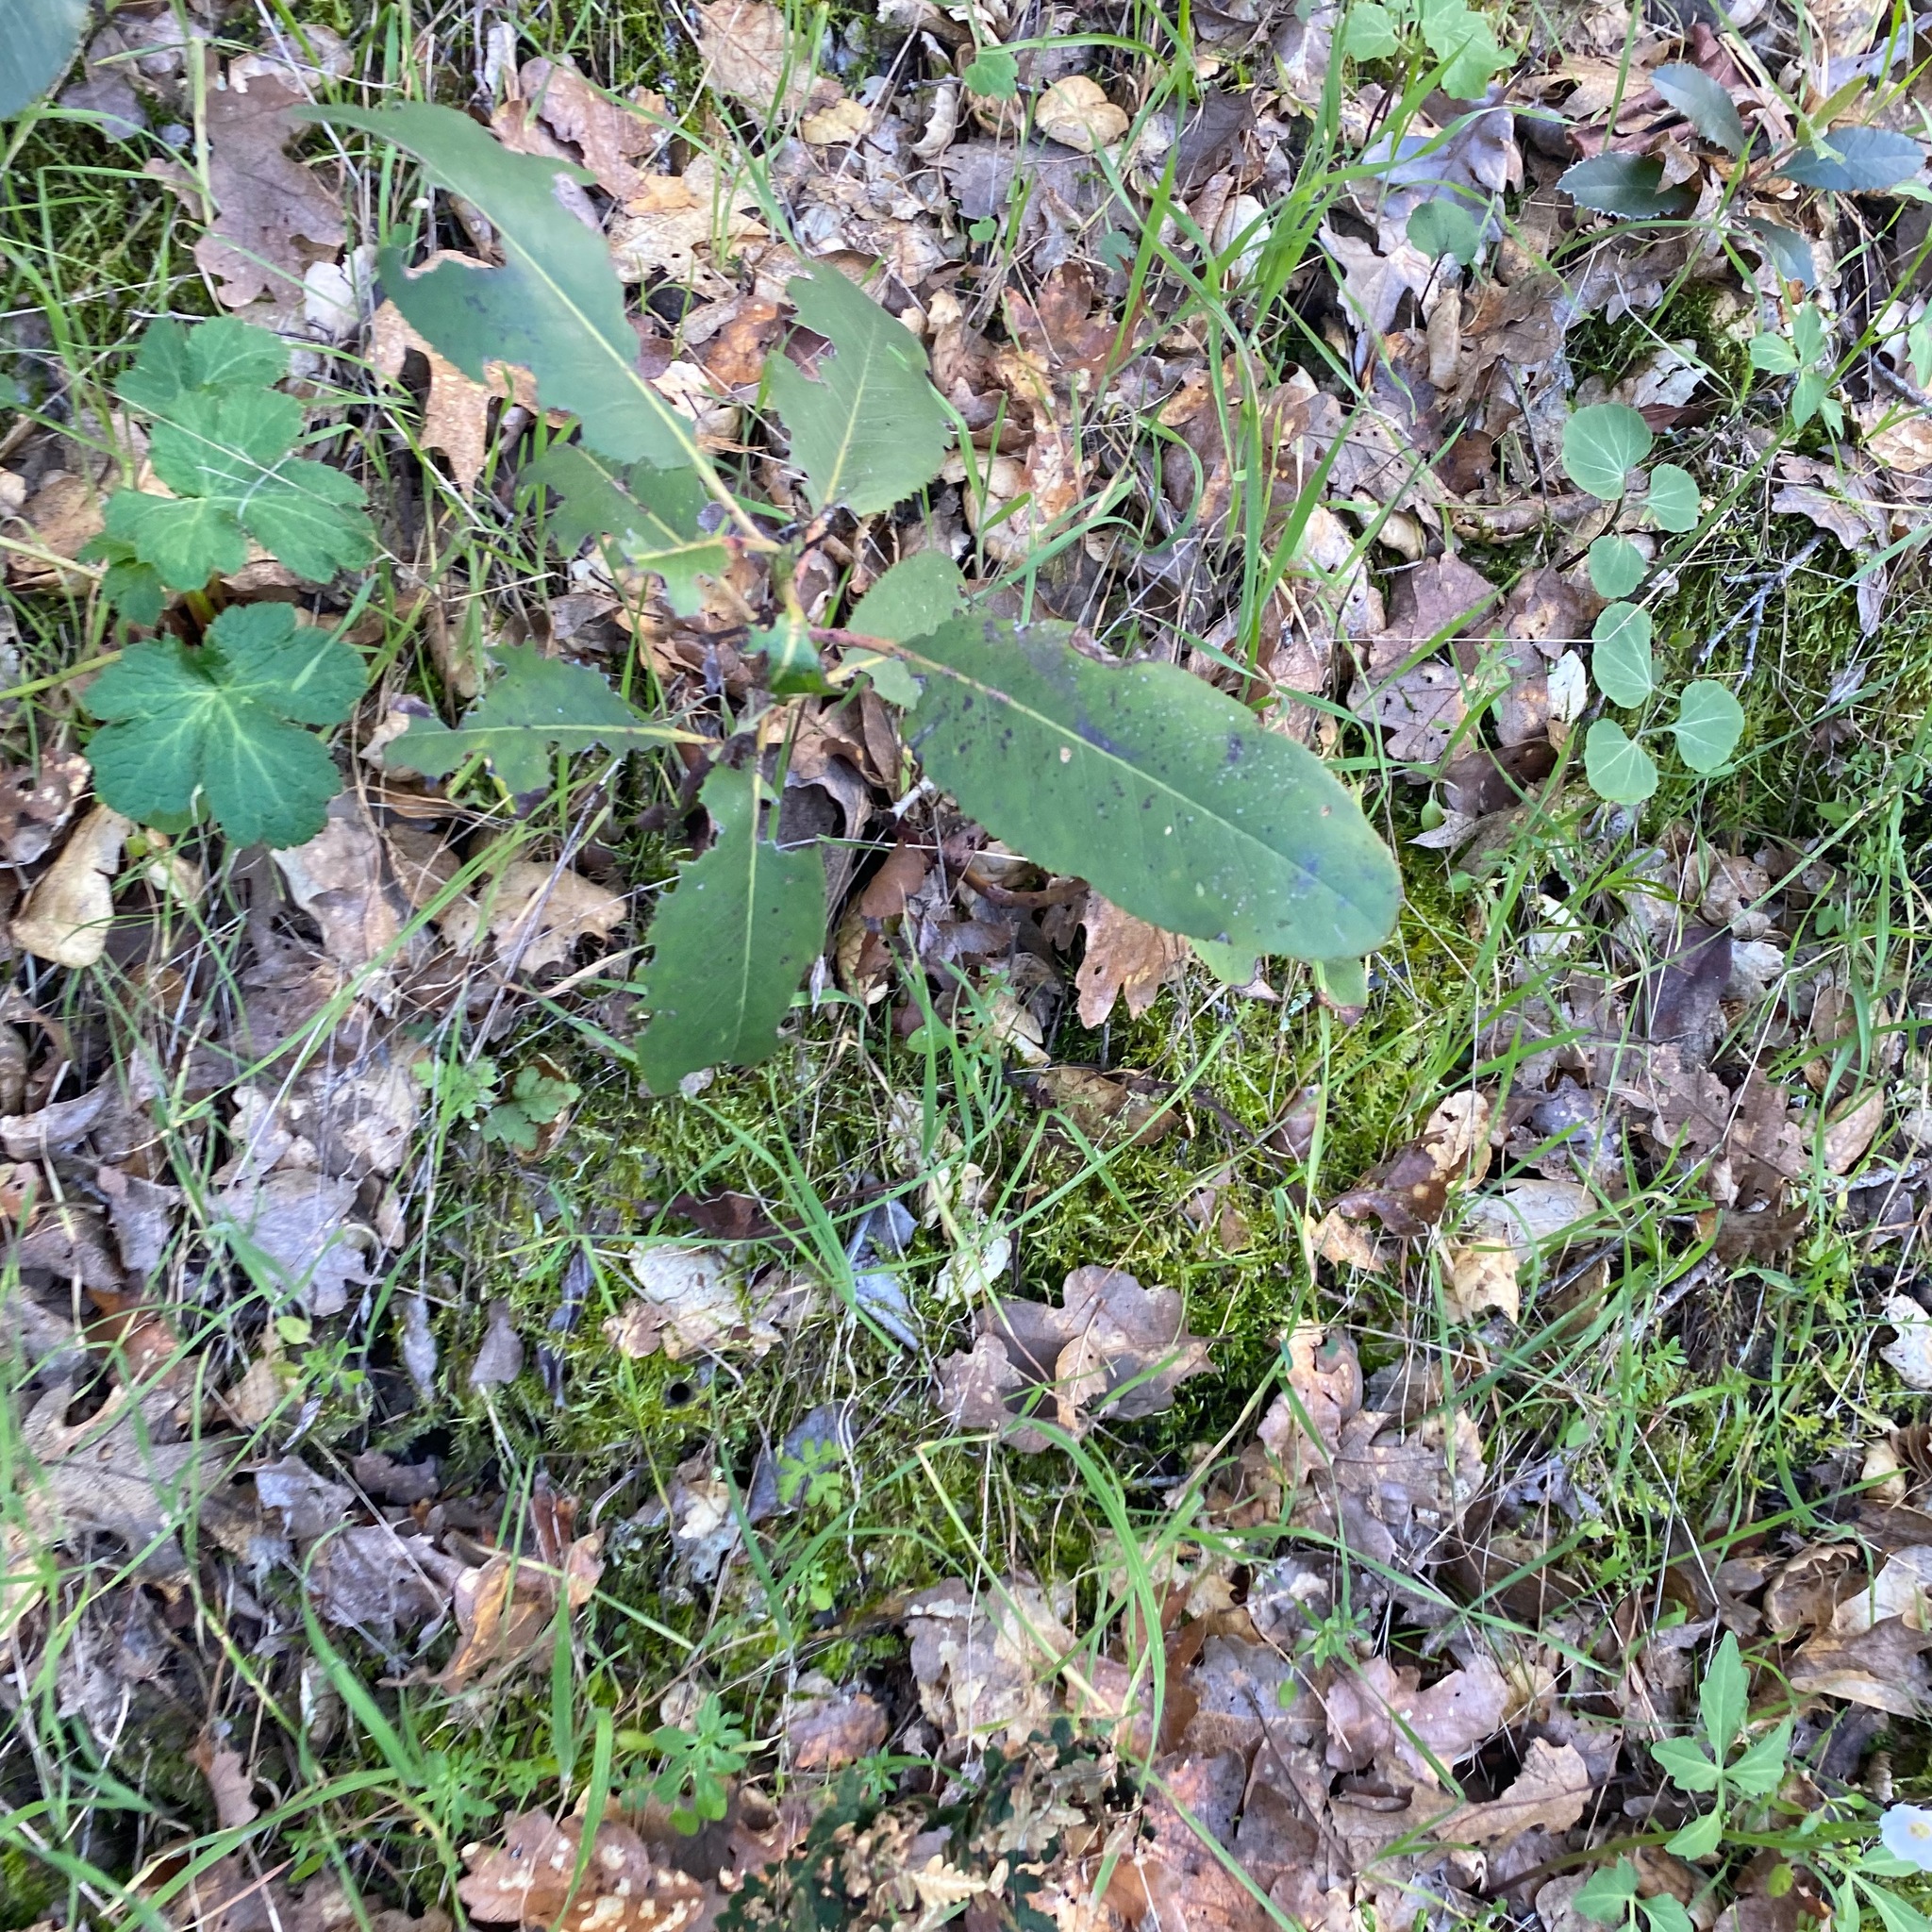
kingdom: Plantae
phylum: Tracheophyta
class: Magnoliopsida
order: Ericales
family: Ericaceae
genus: Arbutus
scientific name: Arbutus menziesii
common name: Pacific madrone
